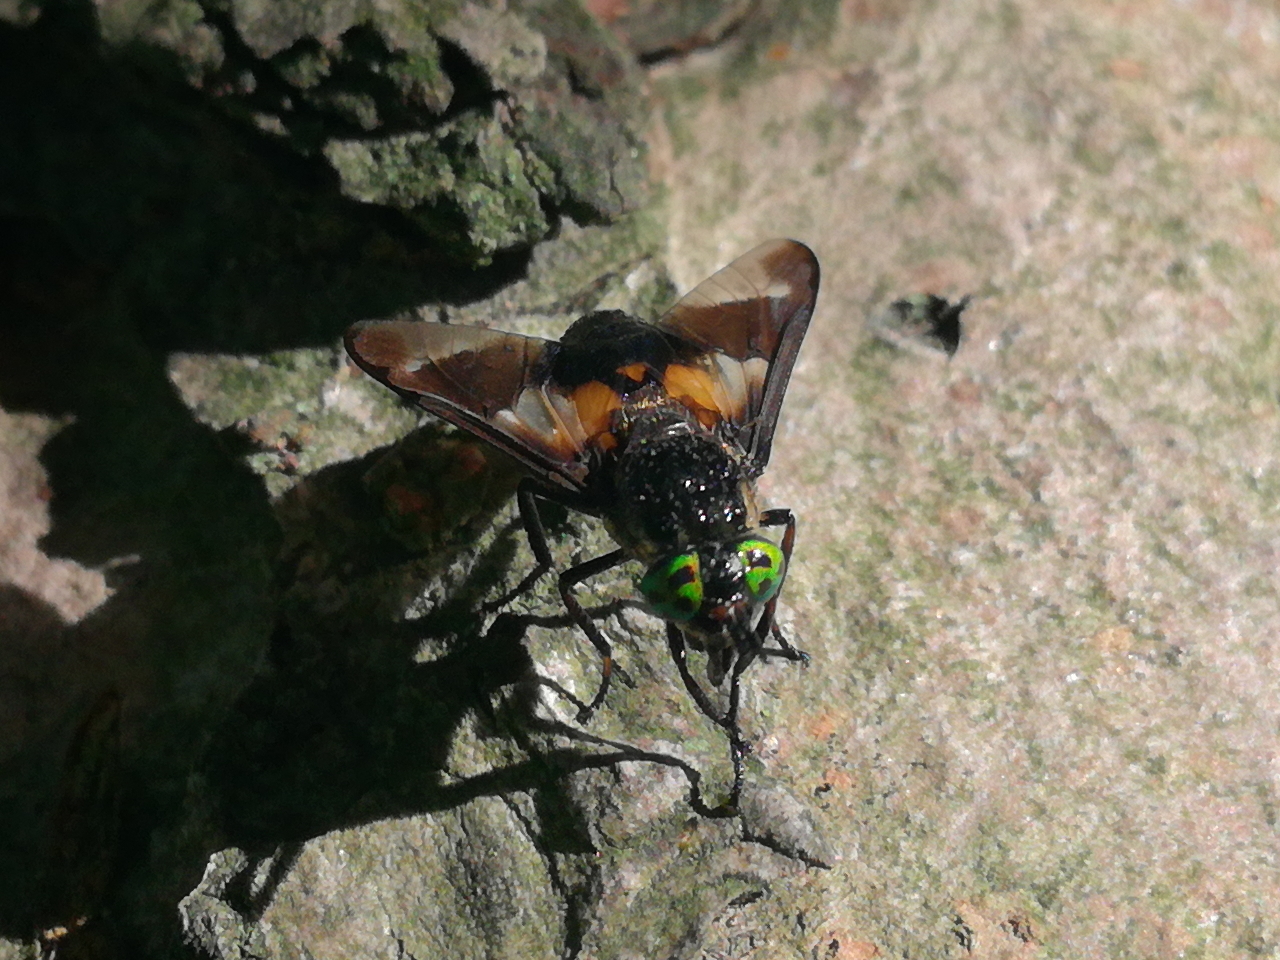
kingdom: Animalia
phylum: Arthropoda
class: Insecta
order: Diptera
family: Tabanidae
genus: Chrysops
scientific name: Chrysops caecutiens
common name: Splayed deerfly
